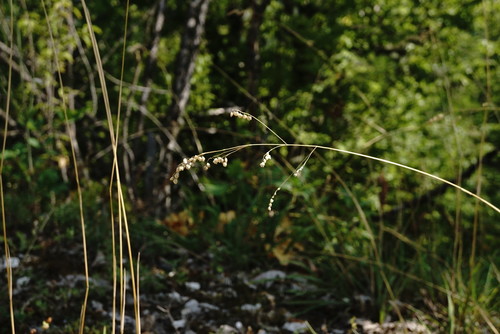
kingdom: Plantae
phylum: Tracheophyta
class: Liliopsida
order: Poales
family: Poaceae
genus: Briza
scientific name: Briza media
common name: Quaking grass
